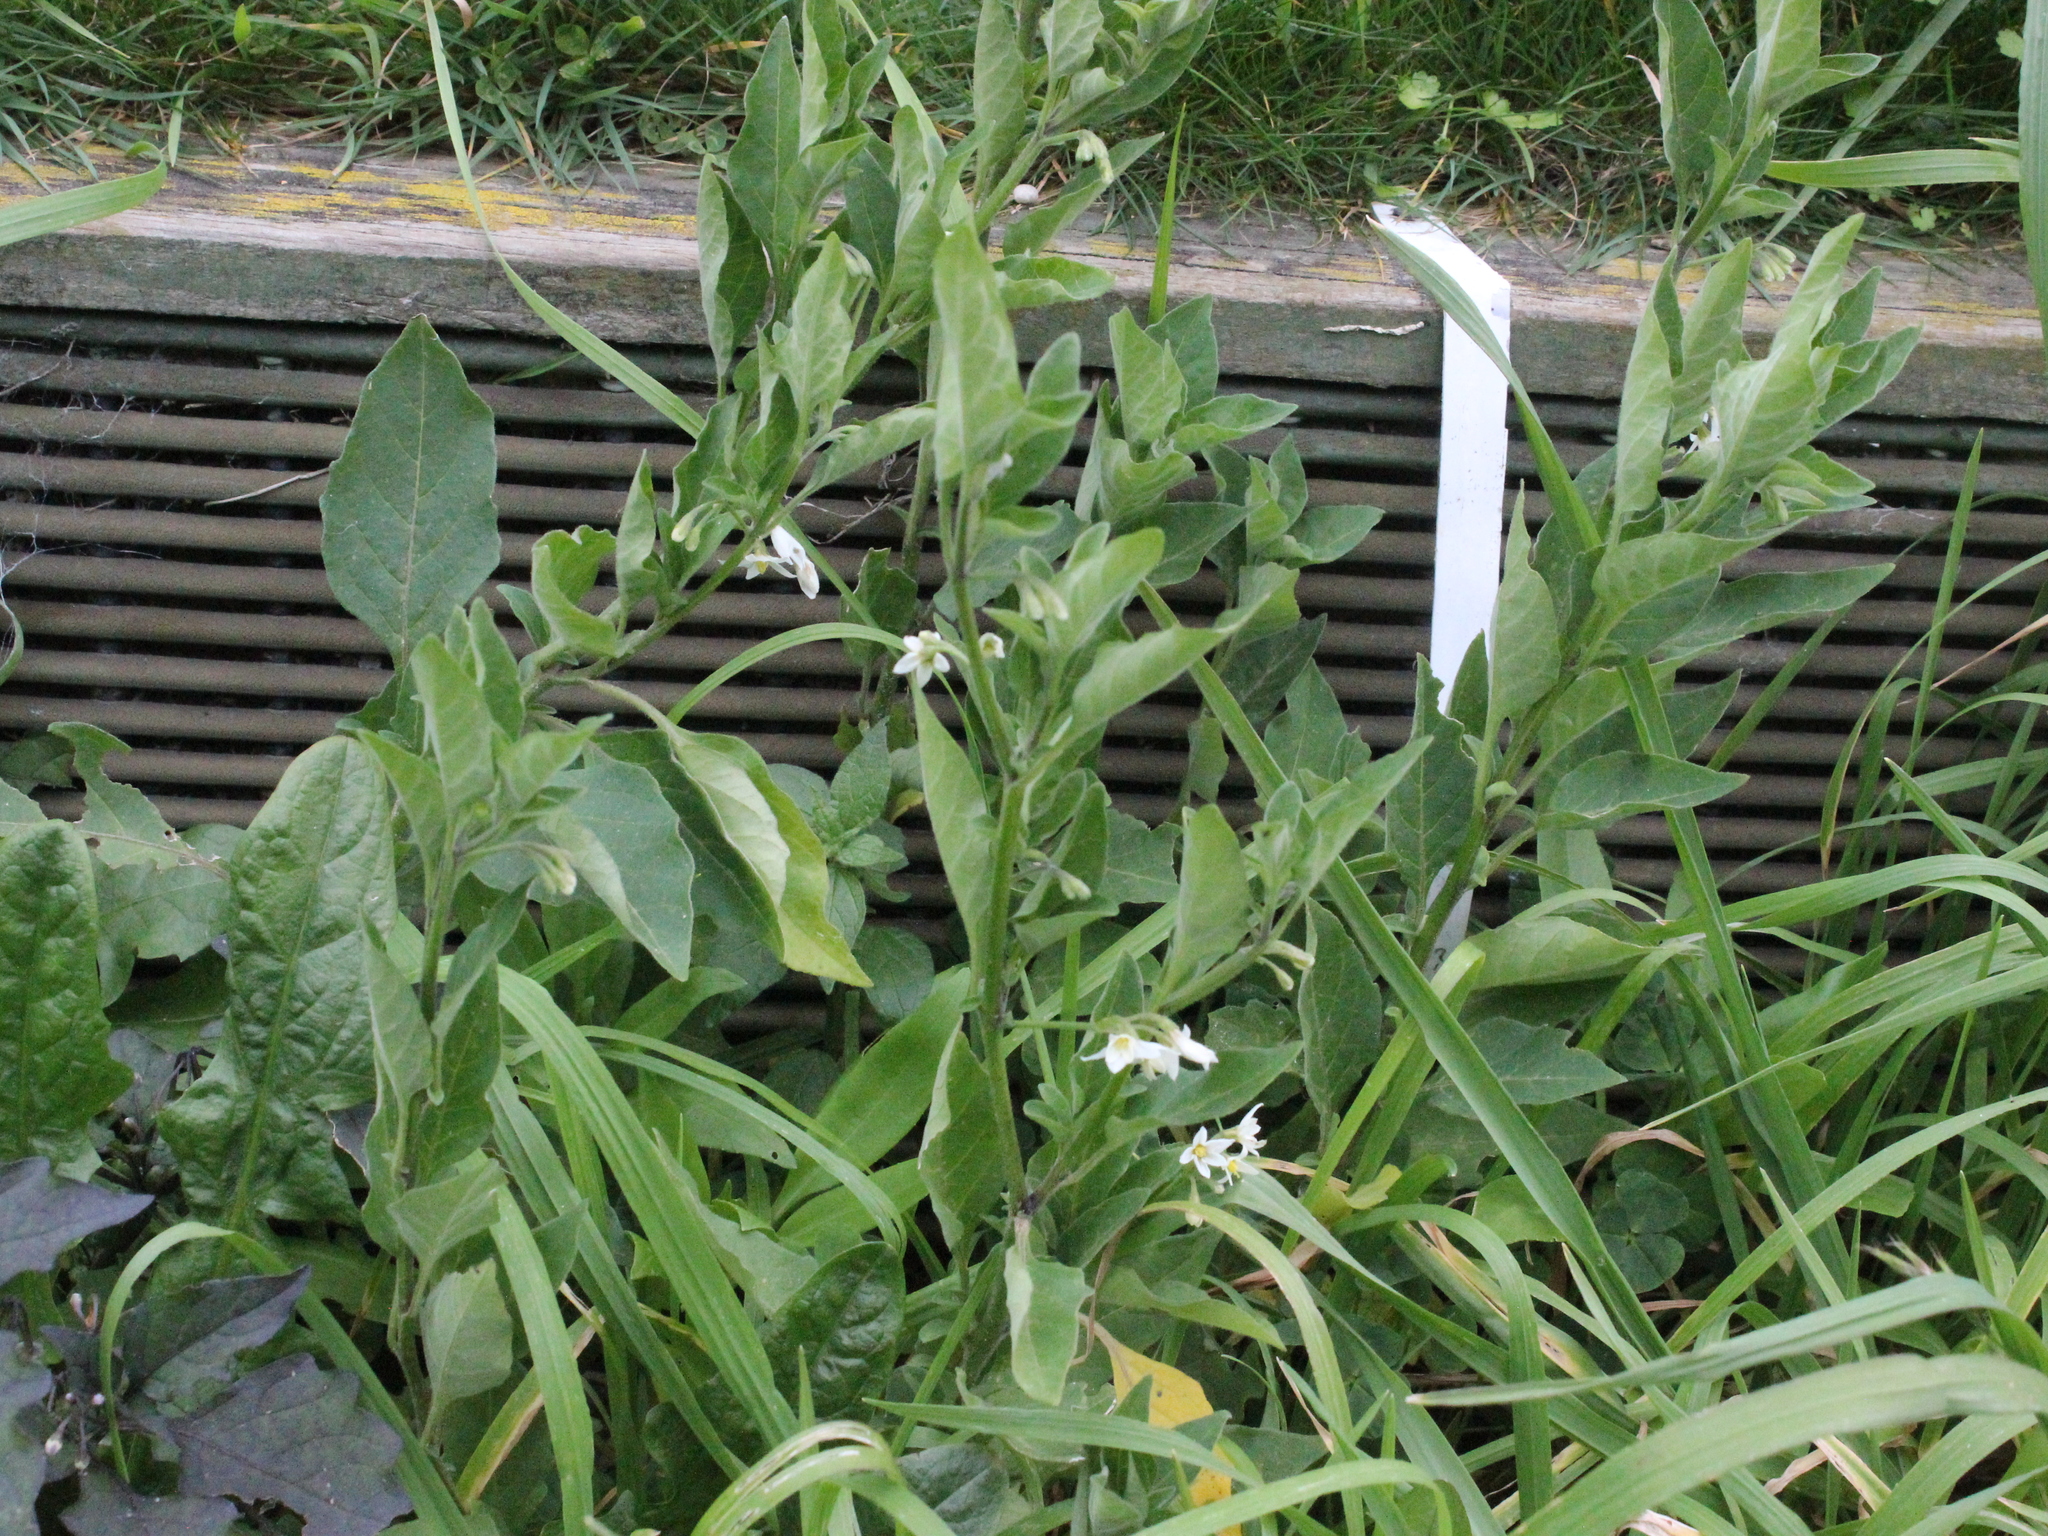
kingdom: Plantae
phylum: Tracheophyta
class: Magnoliopsida
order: Solanales
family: Solanaceae
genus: Solanum
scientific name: Solanum chenopodioides
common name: Tall nightshade
